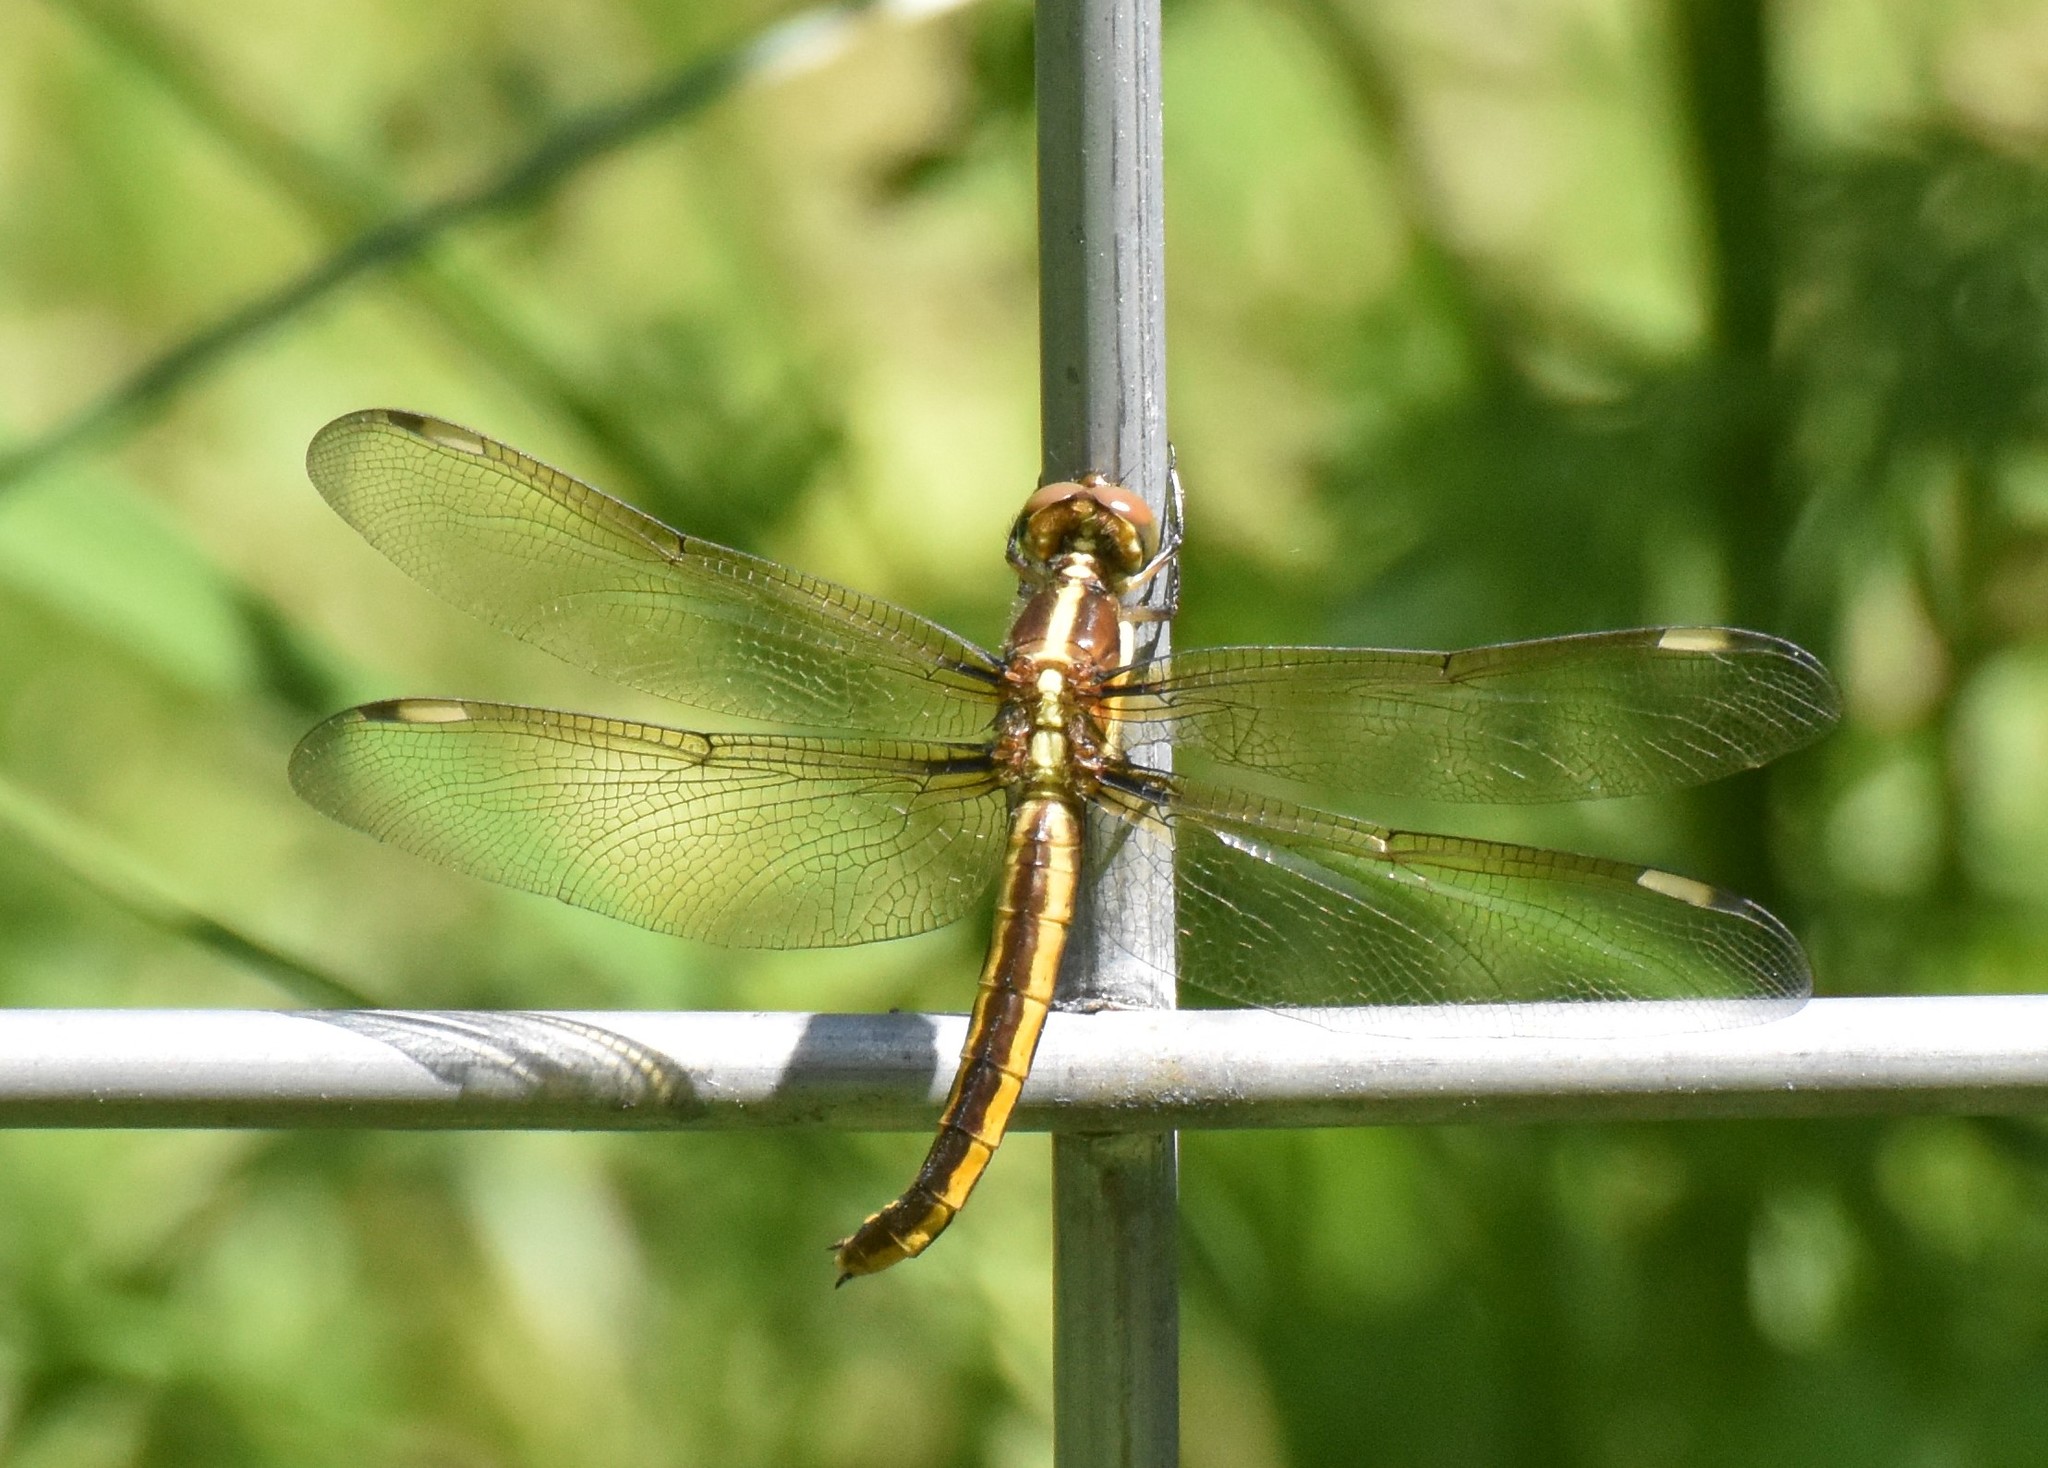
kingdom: Animalia
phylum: Arthropoda
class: Insecta
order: Odonata
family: Libellulidae
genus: Libellula
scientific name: Libellula cyanea
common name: Spangled skimmer
